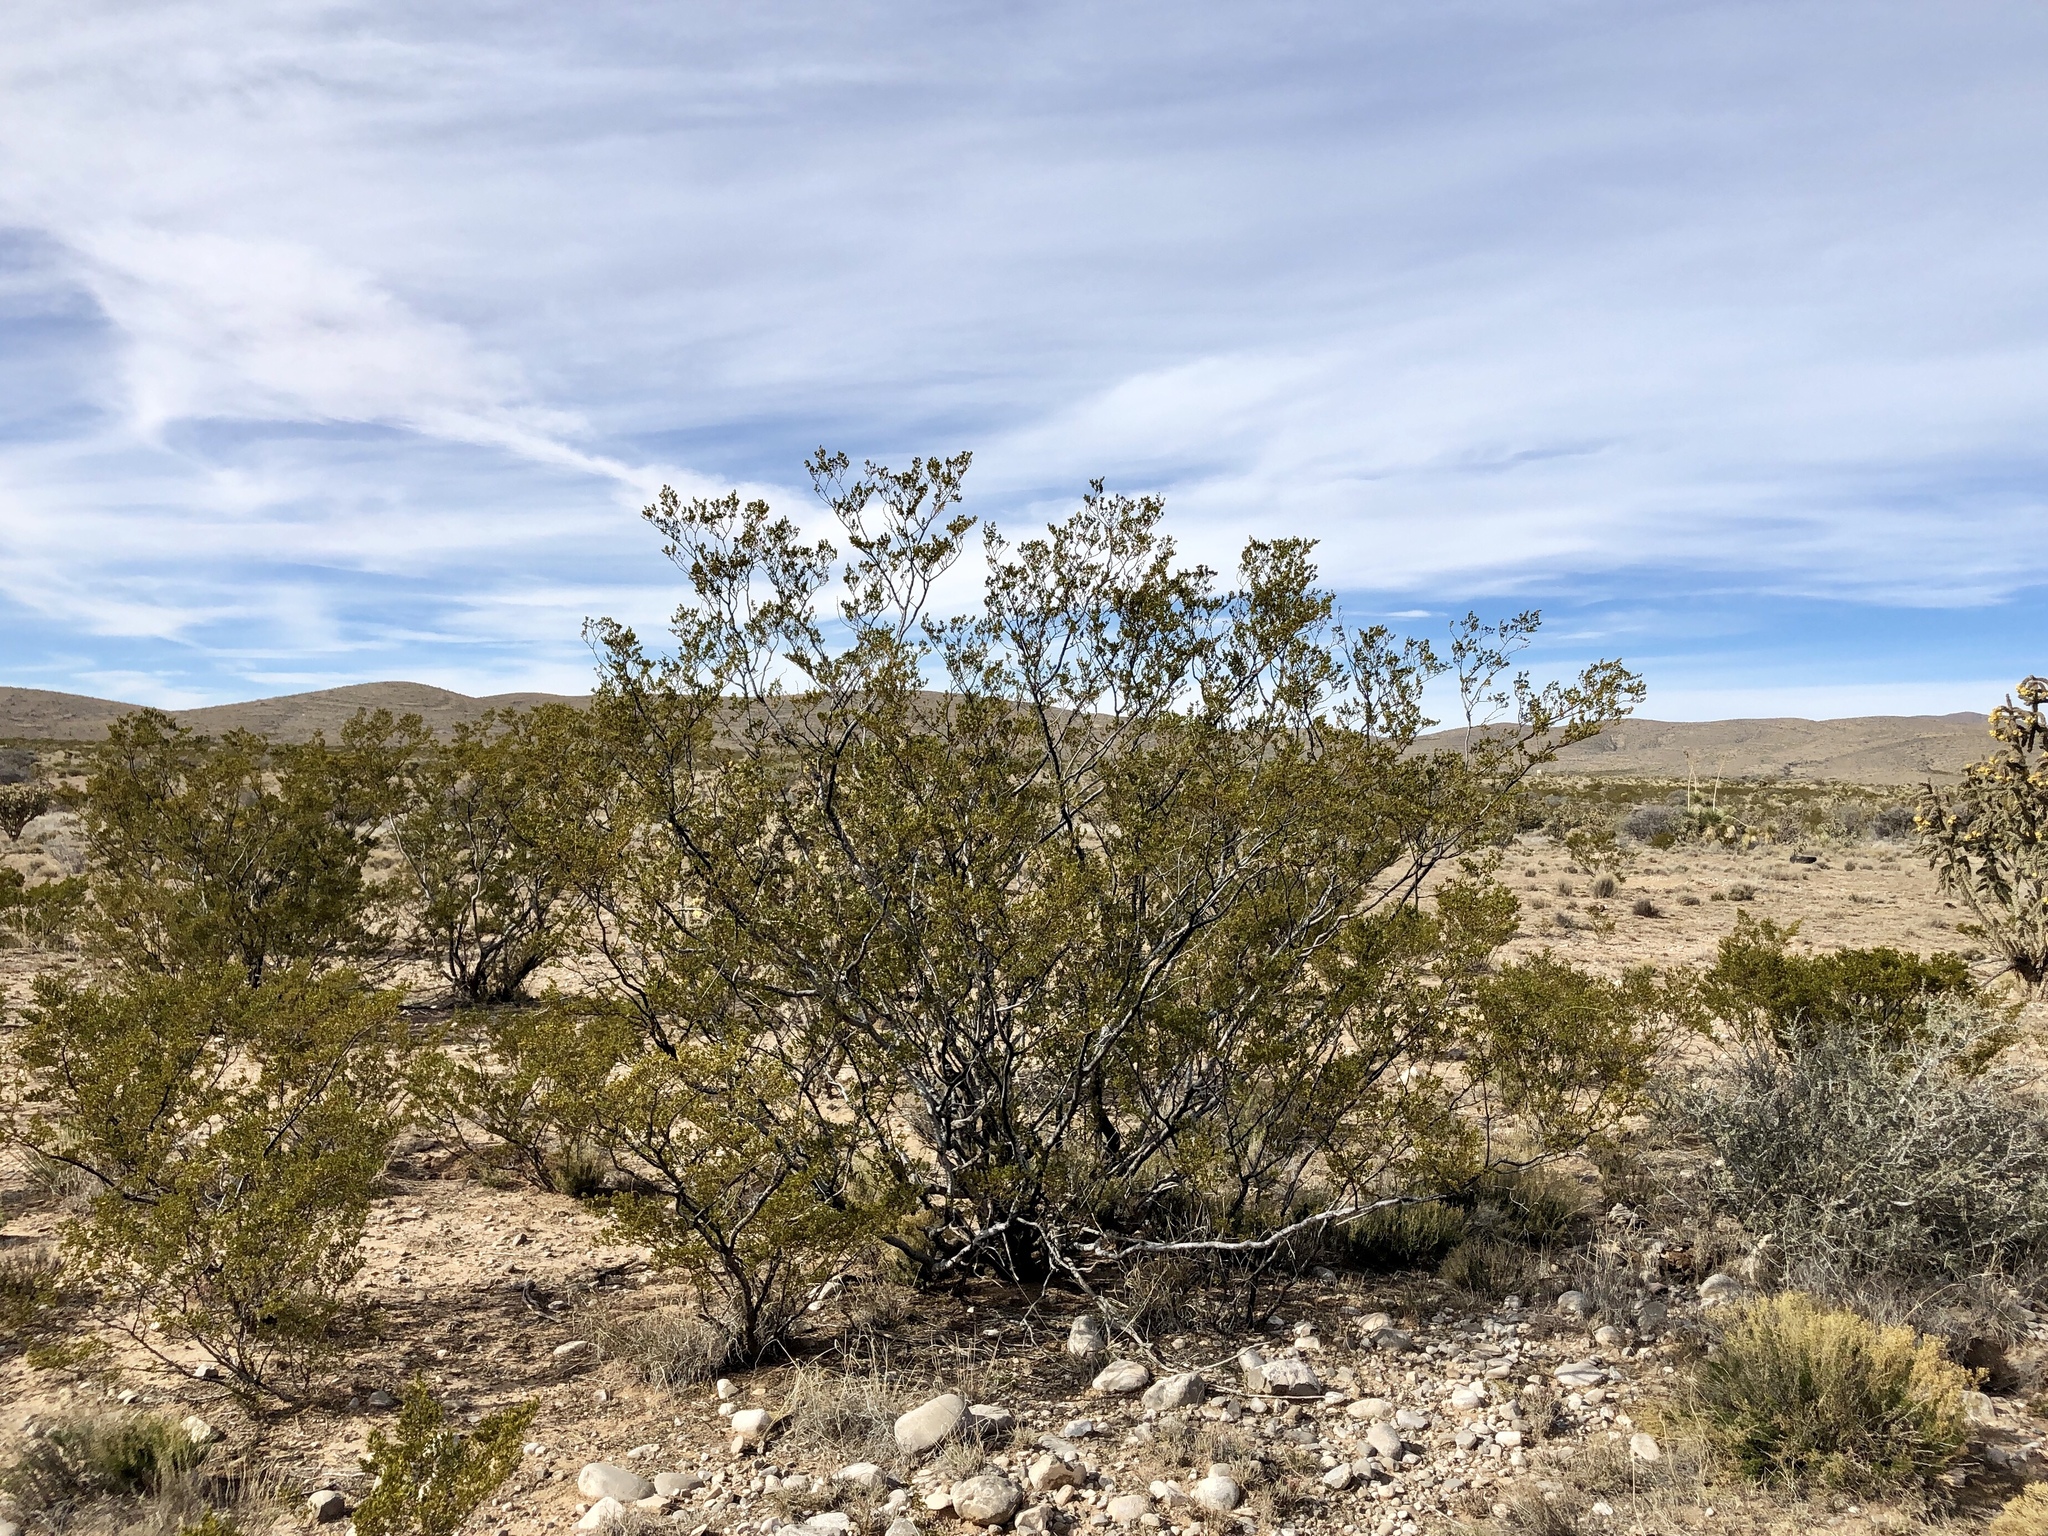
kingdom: Plantae
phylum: Tracheophyta
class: Magnoliopsida
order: Zygophyllales
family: Zygophyllaceae
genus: Larrea
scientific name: Larrea tridentata
